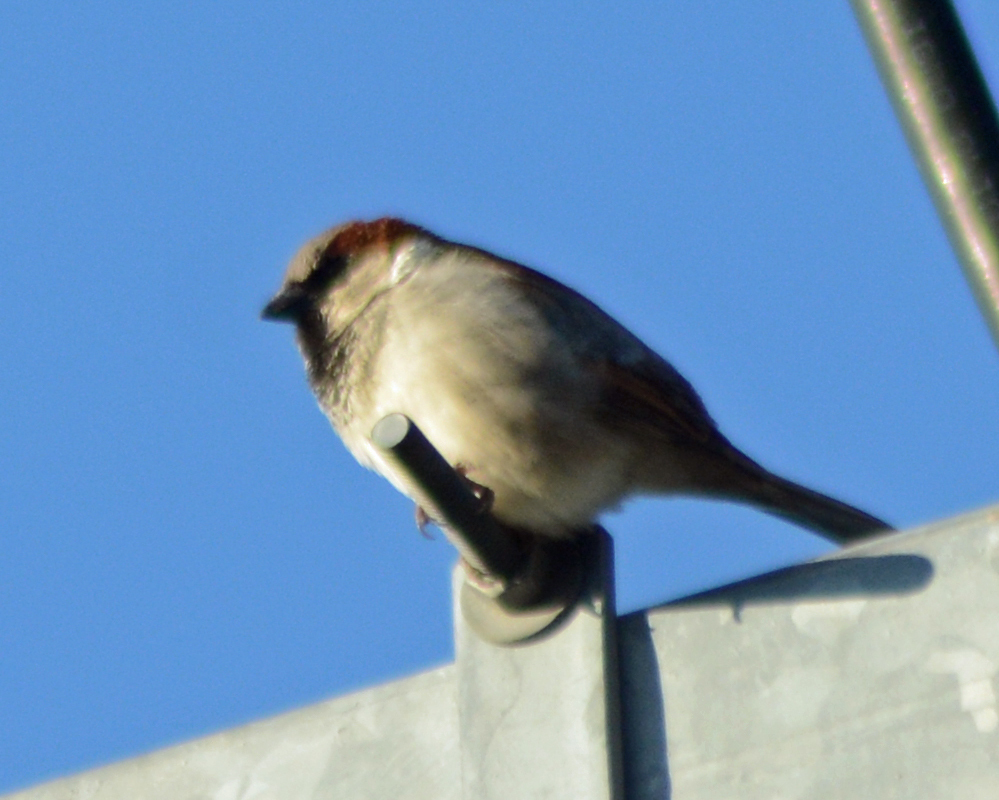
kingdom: Animalia
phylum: Chordata
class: Aves
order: Passeriformes
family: Passeridae
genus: Passer
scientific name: Passer domesticus
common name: House sparrow
